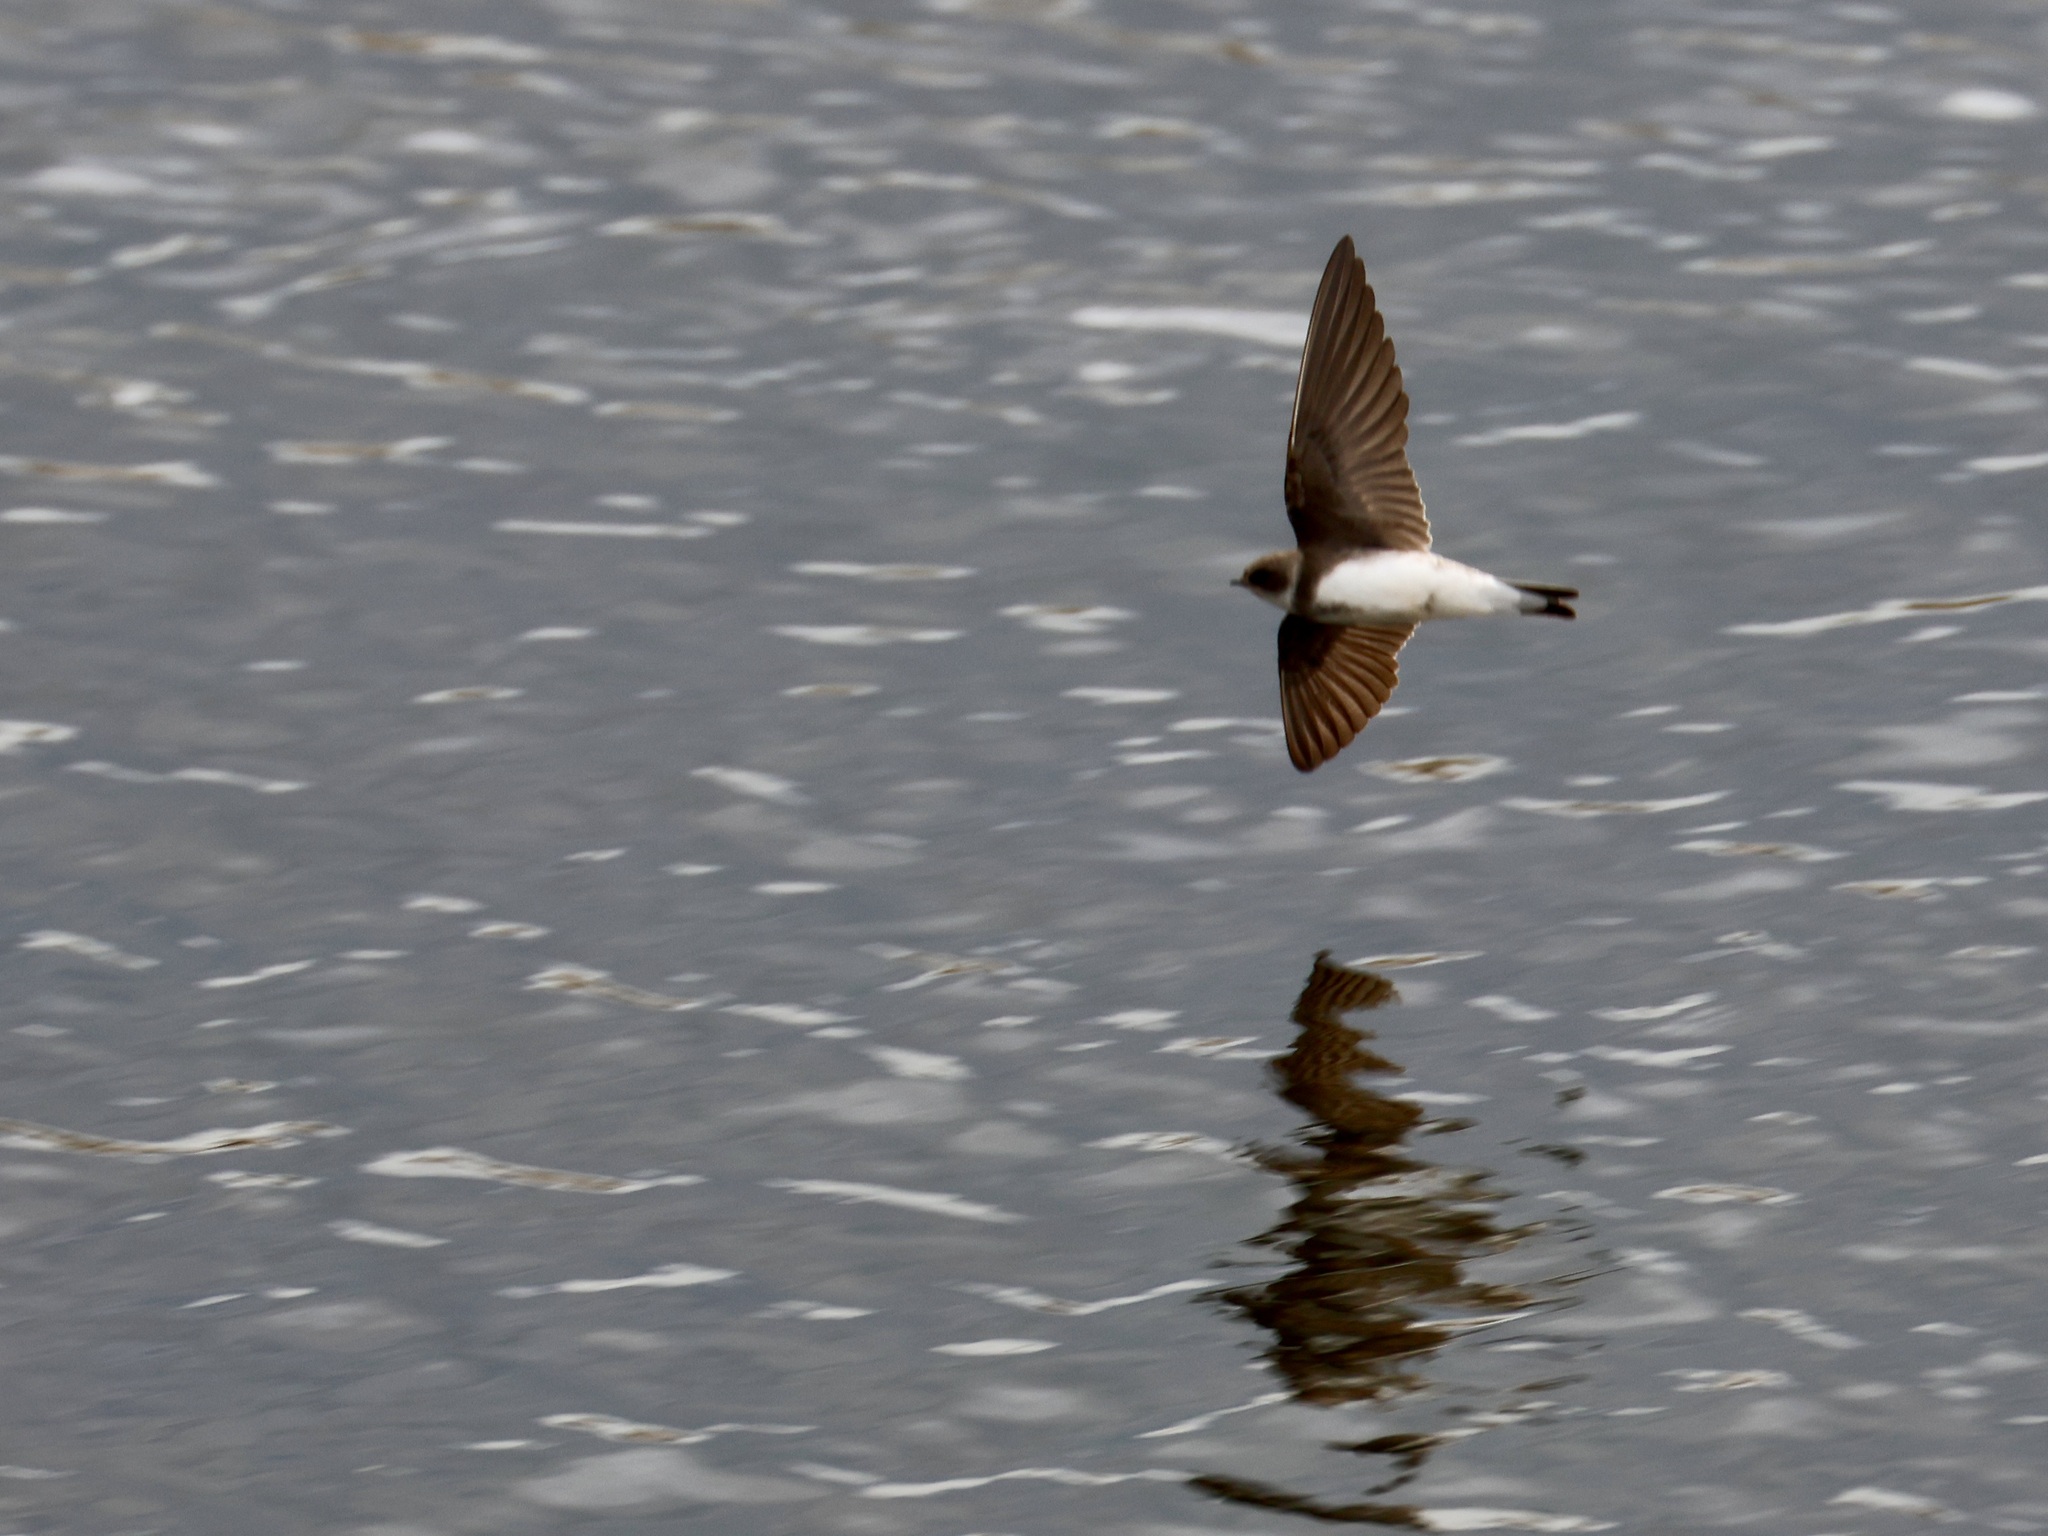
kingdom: Animalia
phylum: Chordata
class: Aves
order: Passeriformes
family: Hirundinidae
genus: Riparia
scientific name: Riparia riparia
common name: Sand martin
